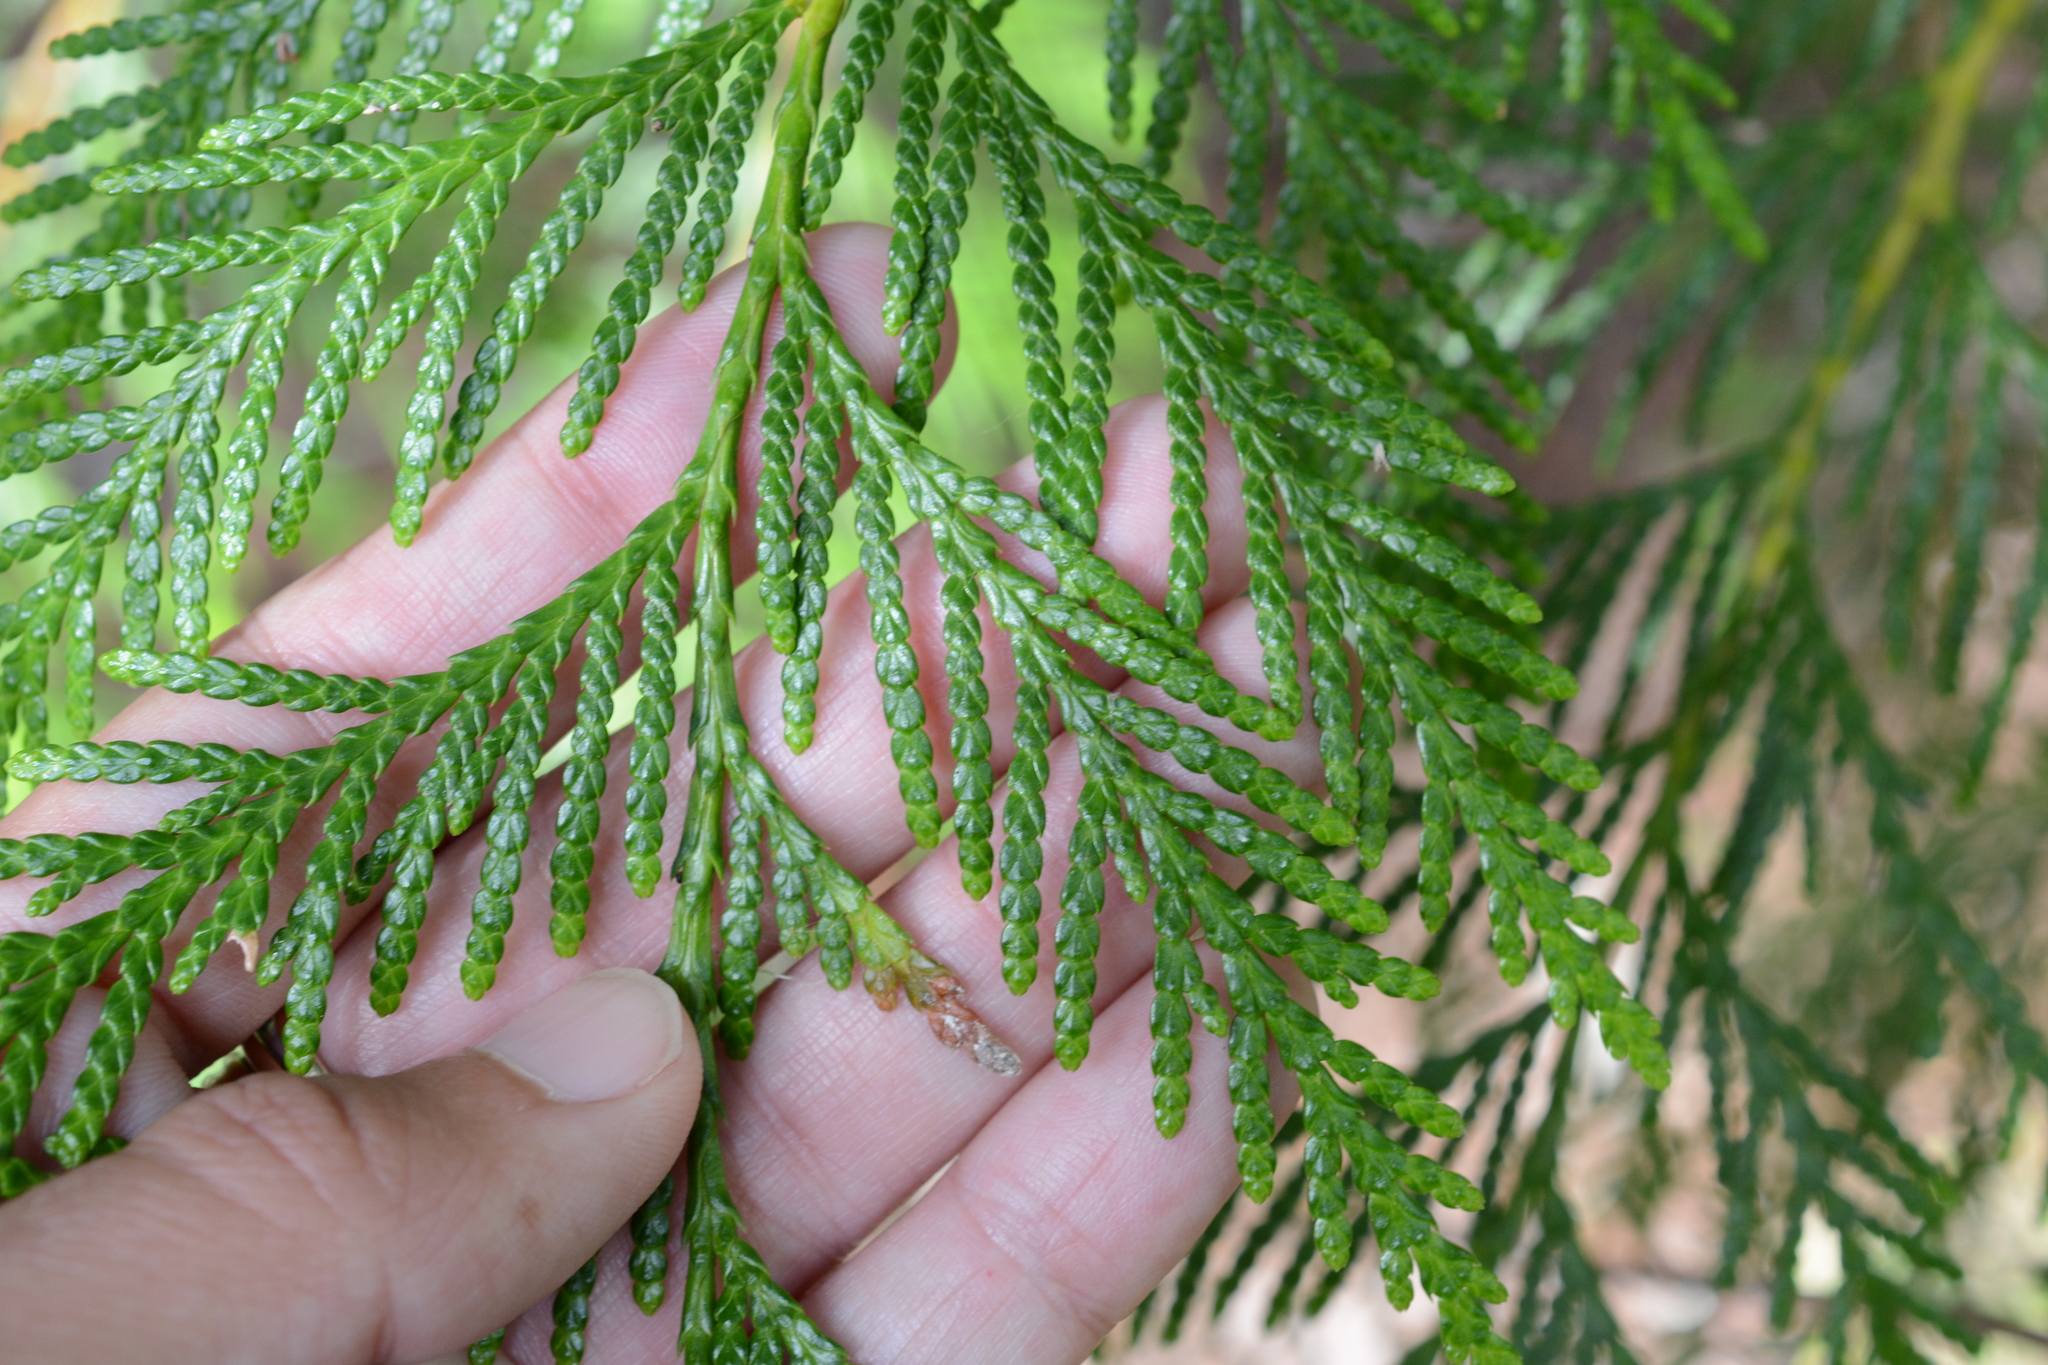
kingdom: Plantae
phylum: Tracheophyta
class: Pinopsida
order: Pinales
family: Cupressaceae
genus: Thuja
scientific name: Thuja plicata
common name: Western red-cedar
